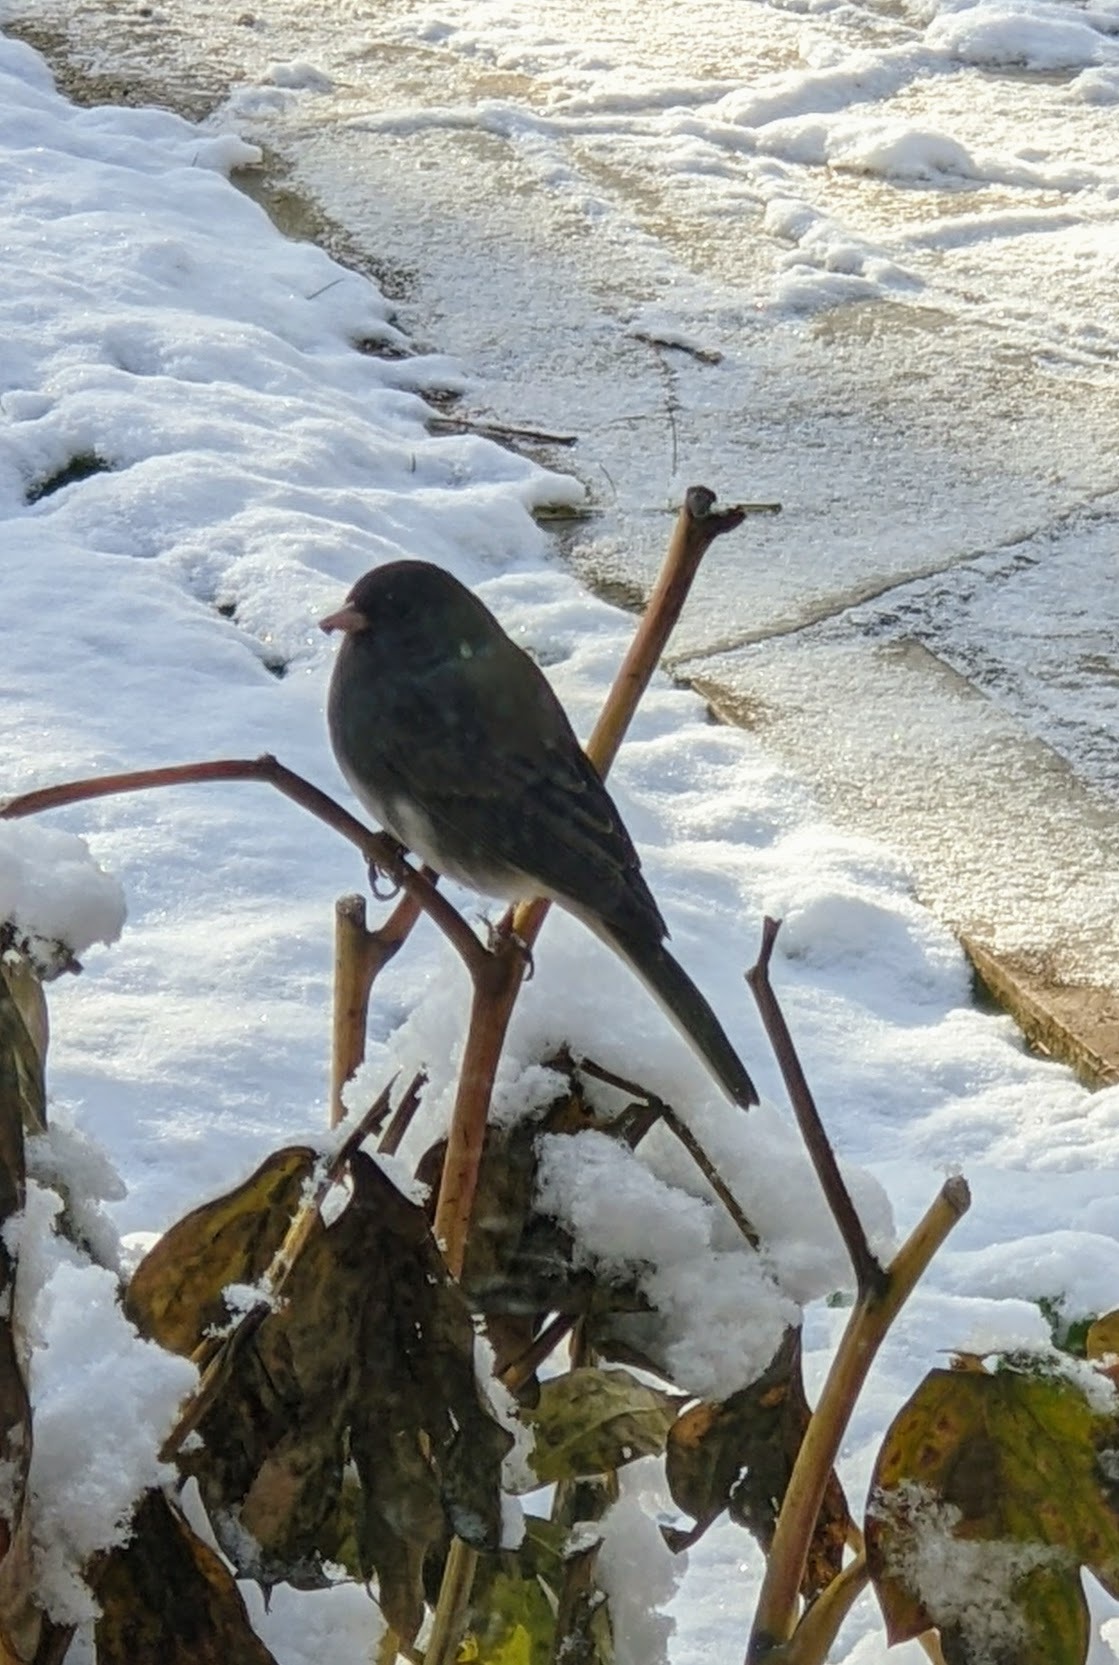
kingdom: Animalia
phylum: Chordata
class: Aves
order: Passeriformes
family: Passerellidae
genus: Junco
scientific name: Junco hyemalis
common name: Dark-eyed junco
